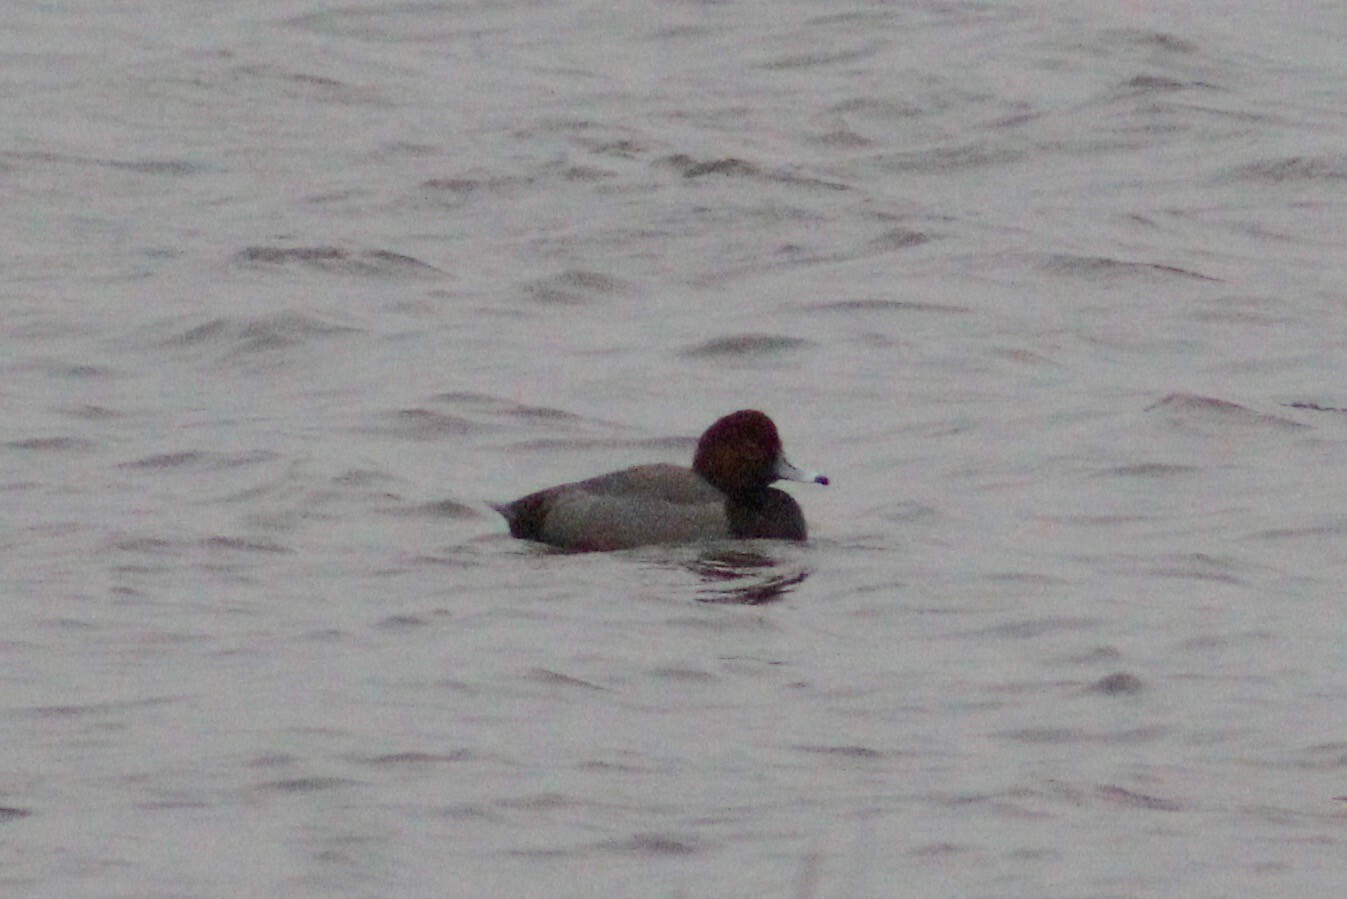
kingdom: Animalia
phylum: Chordata
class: Aves
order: Anseriformes
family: Anatidae
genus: Aythya
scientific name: Aythya americana
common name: Redhead
